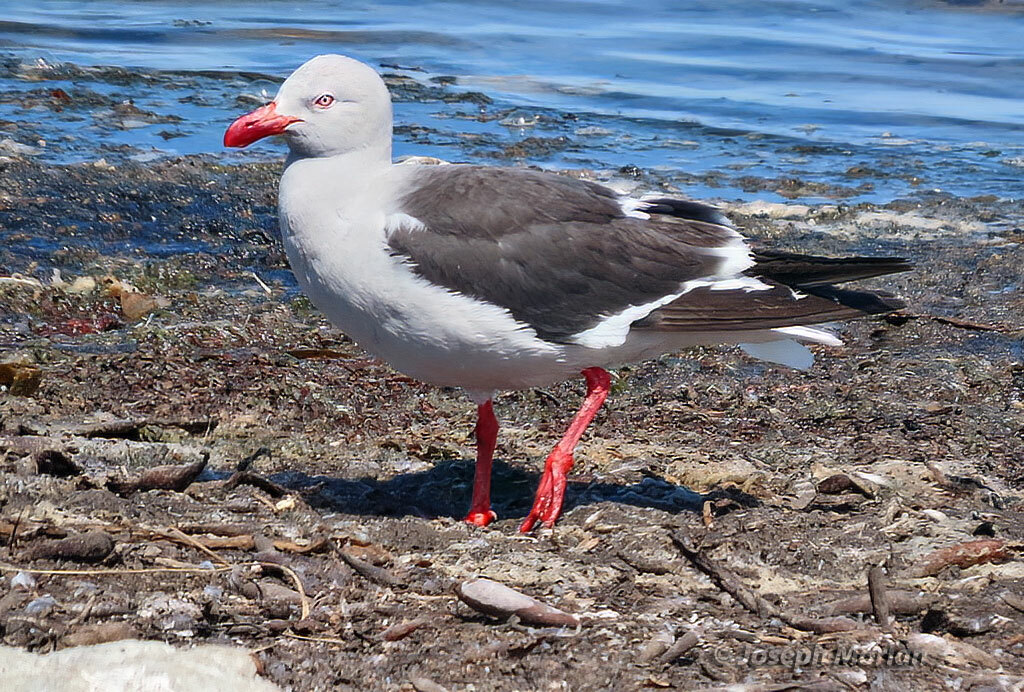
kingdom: Animalia
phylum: Chordata
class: Aves
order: Charadriiformes
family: Laridae
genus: Leucophaeus
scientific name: Leucophaeus scoresbii
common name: Dolphin gull
